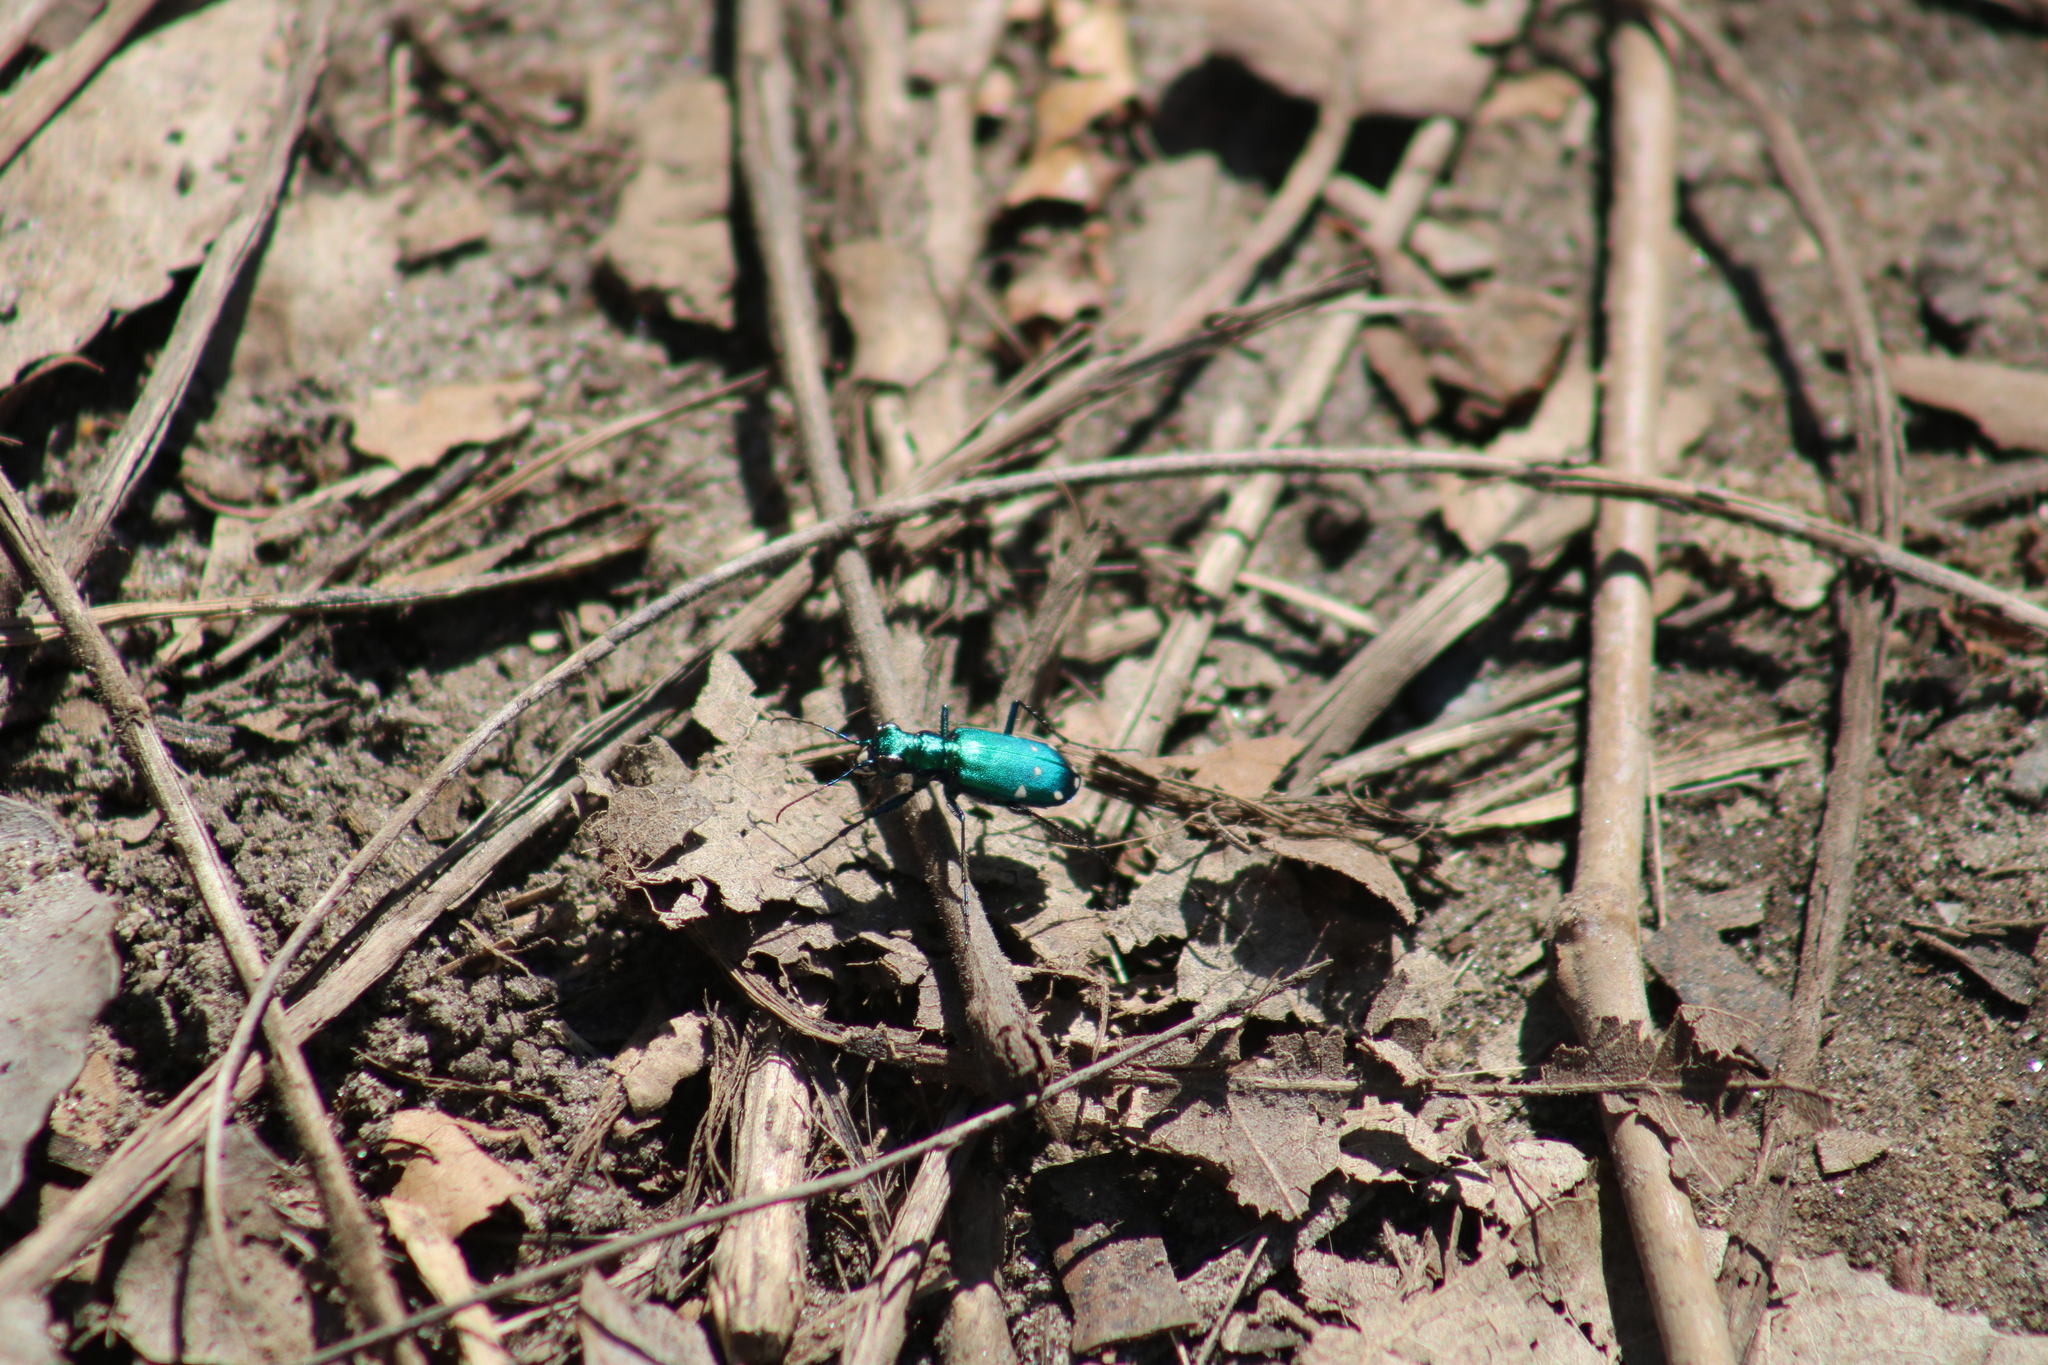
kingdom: Animalia
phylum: Arthropoda
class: Insecta
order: Coleoptera
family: Carabidae
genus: Cicindela
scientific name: Cicindela sexguttata
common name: Six-spotted tiger beetle
